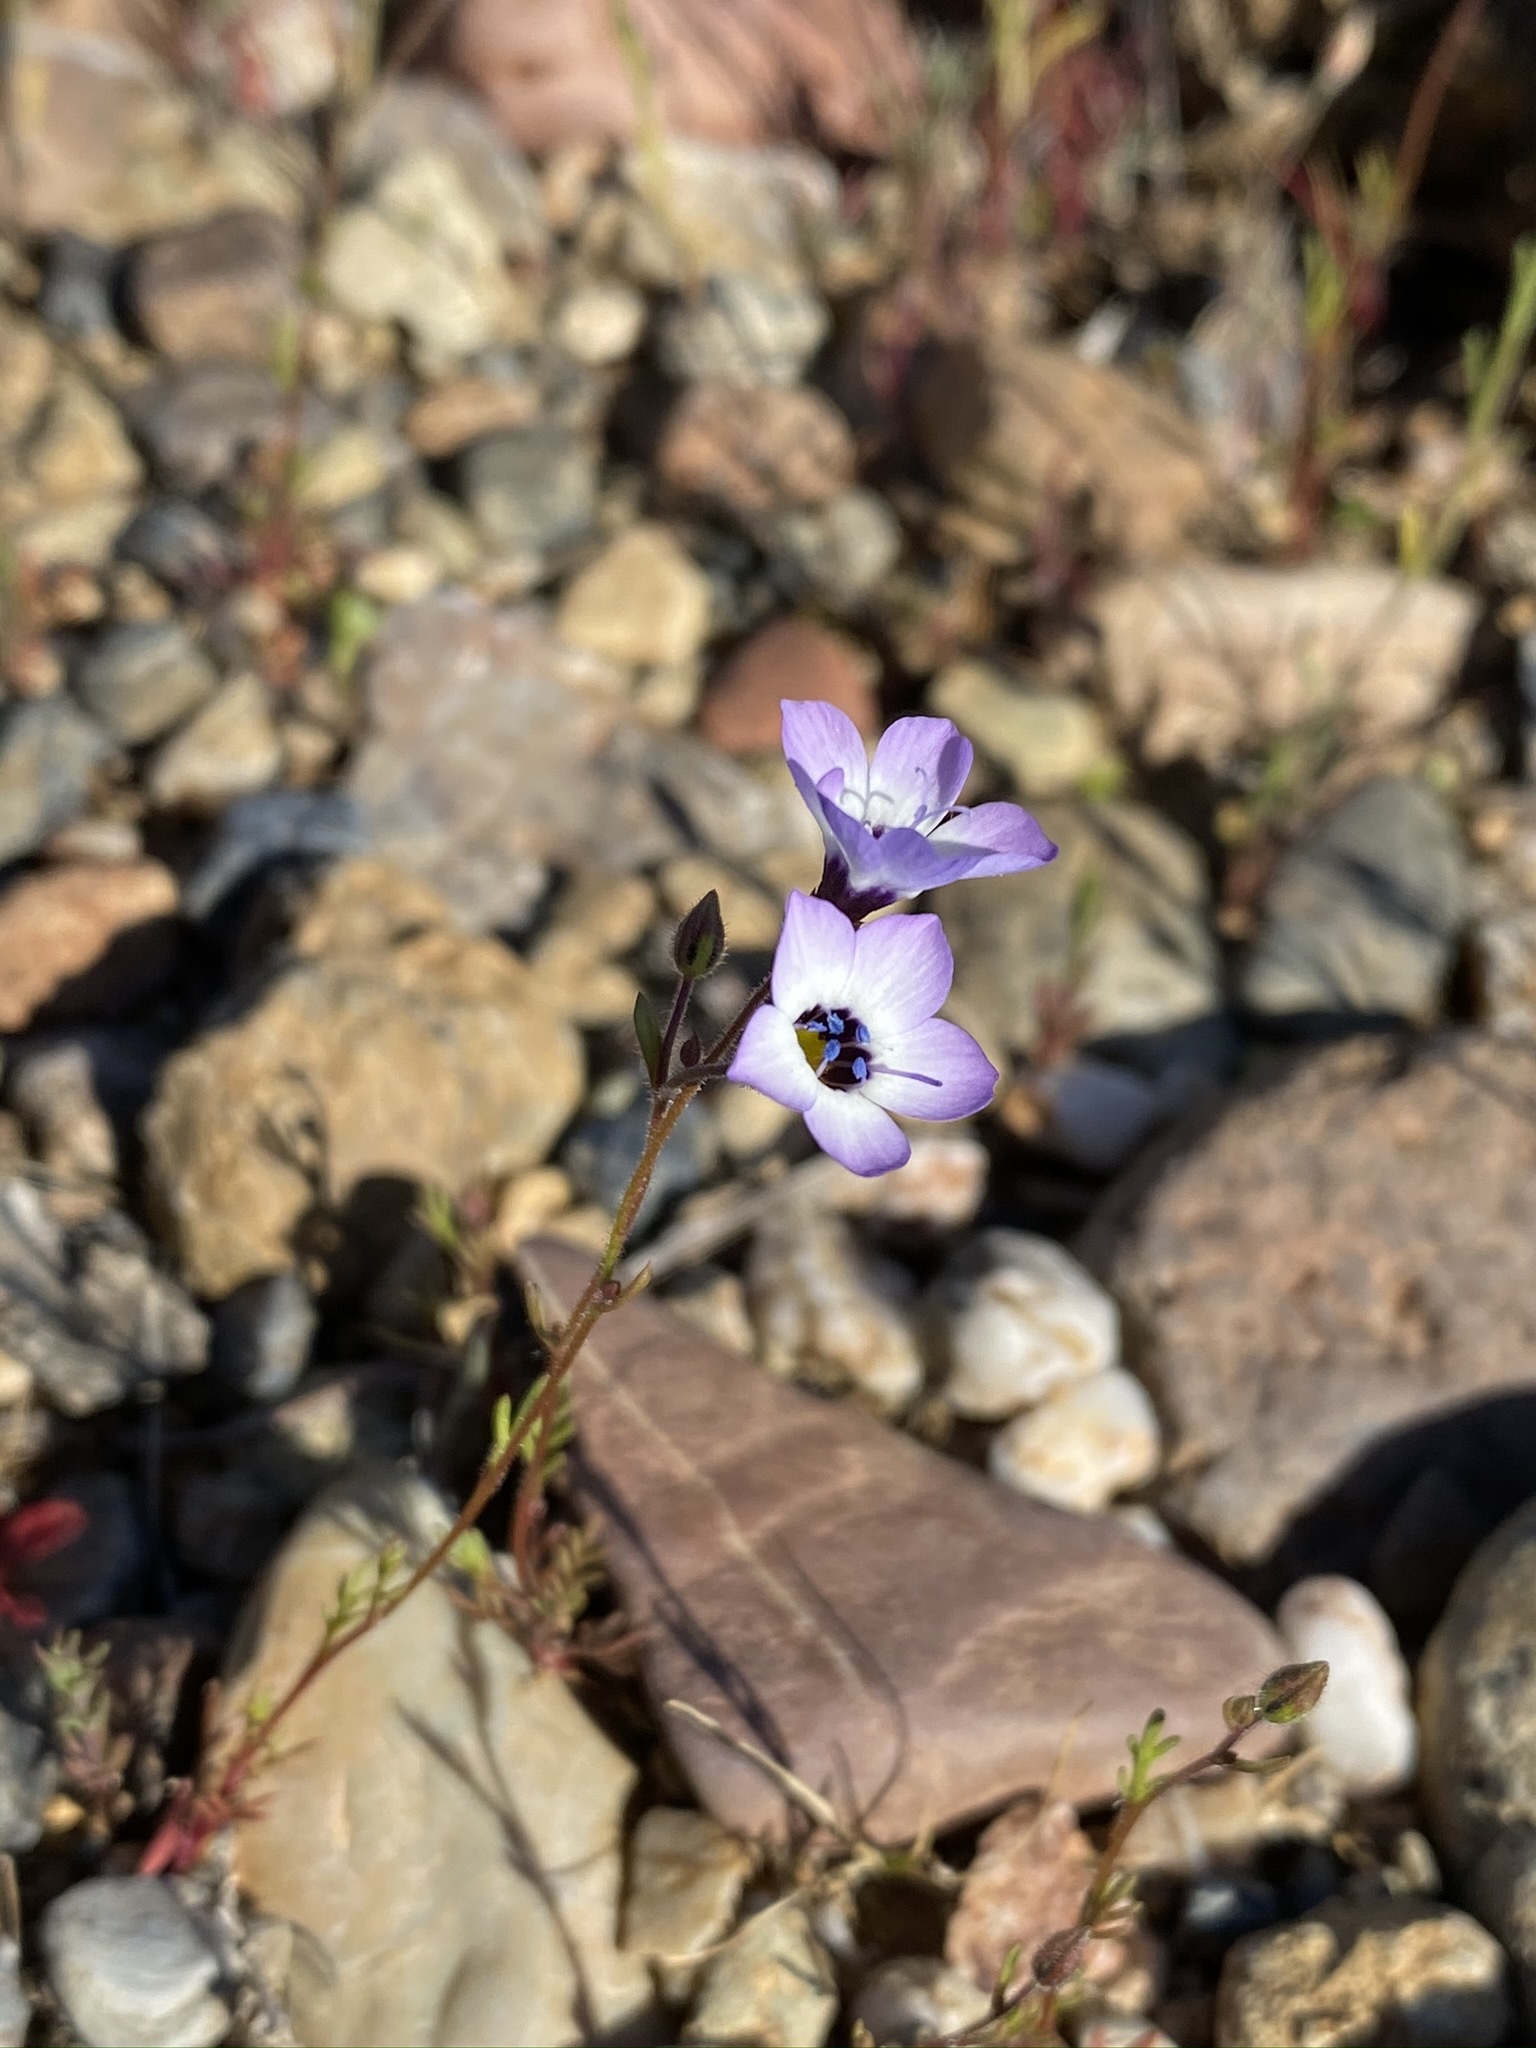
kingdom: Plantae
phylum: Tracheophyta
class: Magnoliopsida
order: Ericales
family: Polemoniaceae
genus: Gilia
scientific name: Gilia tricolor
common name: Bird's-eyes
